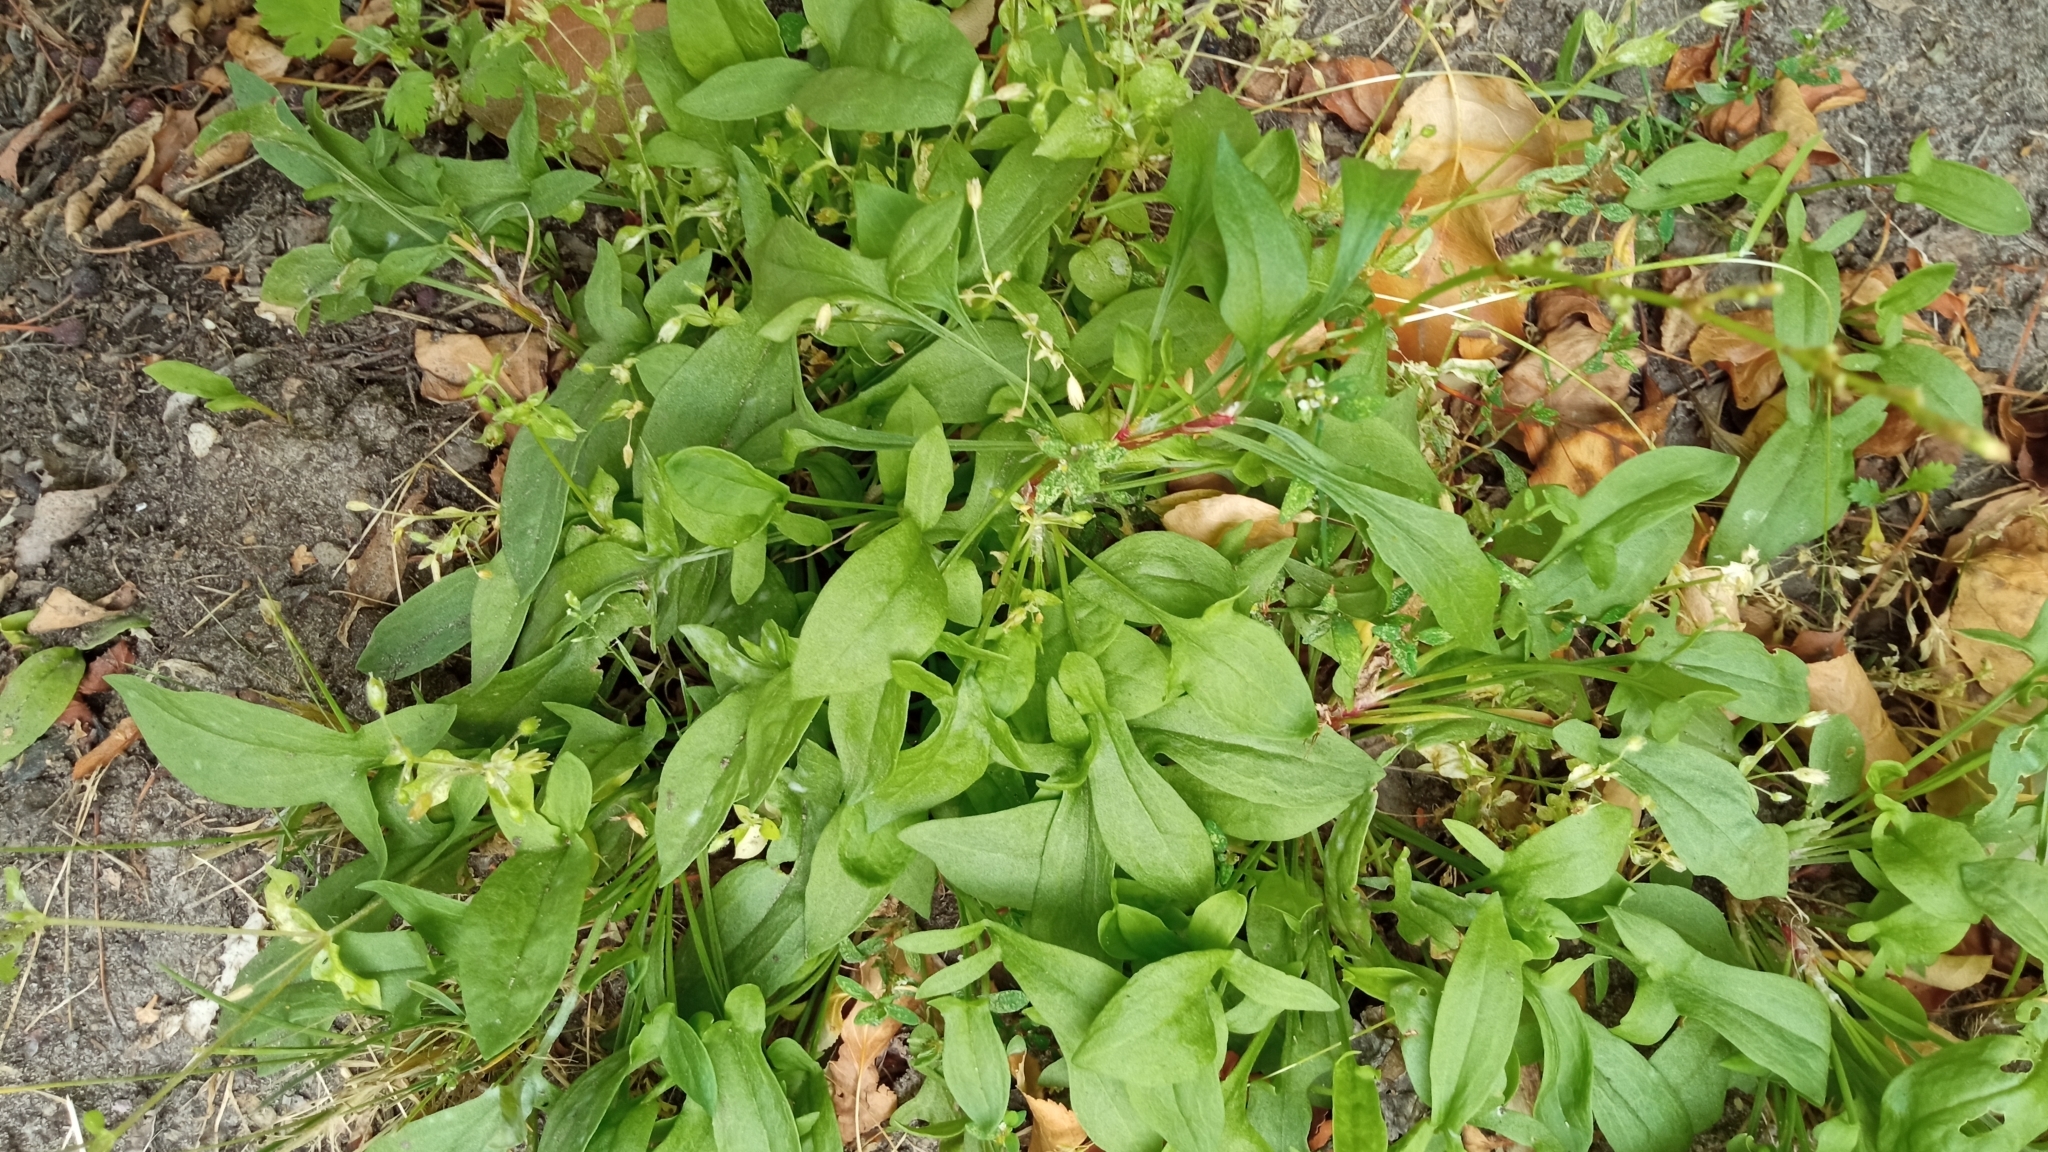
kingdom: Plantae
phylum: Tracheophyta
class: Magnoliopsida
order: Caryophyllales
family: Polygonaceae
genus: Rumex
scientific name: Rumex acetosella
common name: Common sheep sorrel
